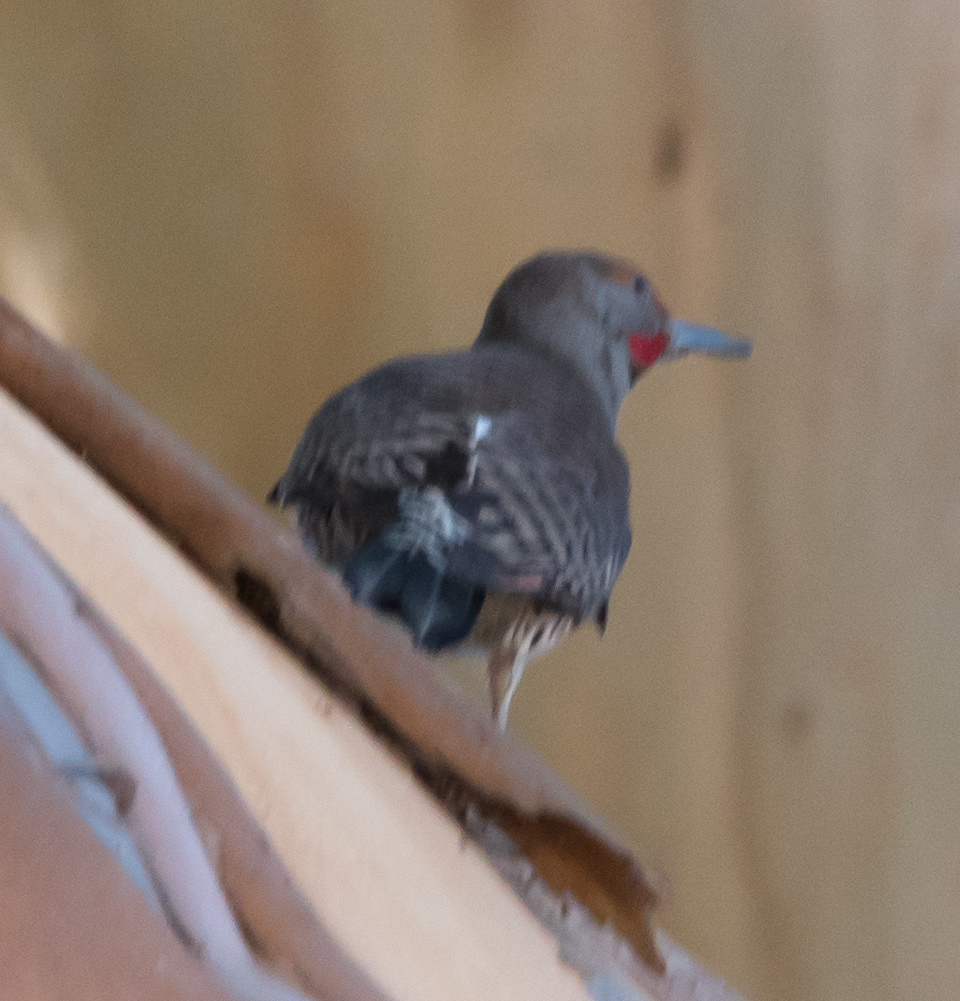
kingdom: Animalia
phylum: Chordata
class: Aves
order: Piciformes
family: Picidae
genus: Colaptes
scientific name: Colaptes auratus
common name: Northern flicker
